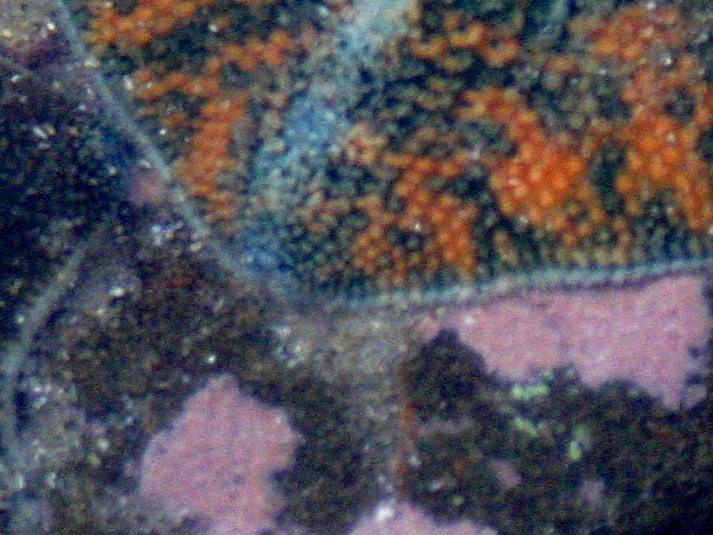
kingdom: Animalia
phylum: Echinodermata
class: Asteroidea
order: Valvatida
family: Asterinidae
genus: Patiriella
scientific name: Patiriella regularis
